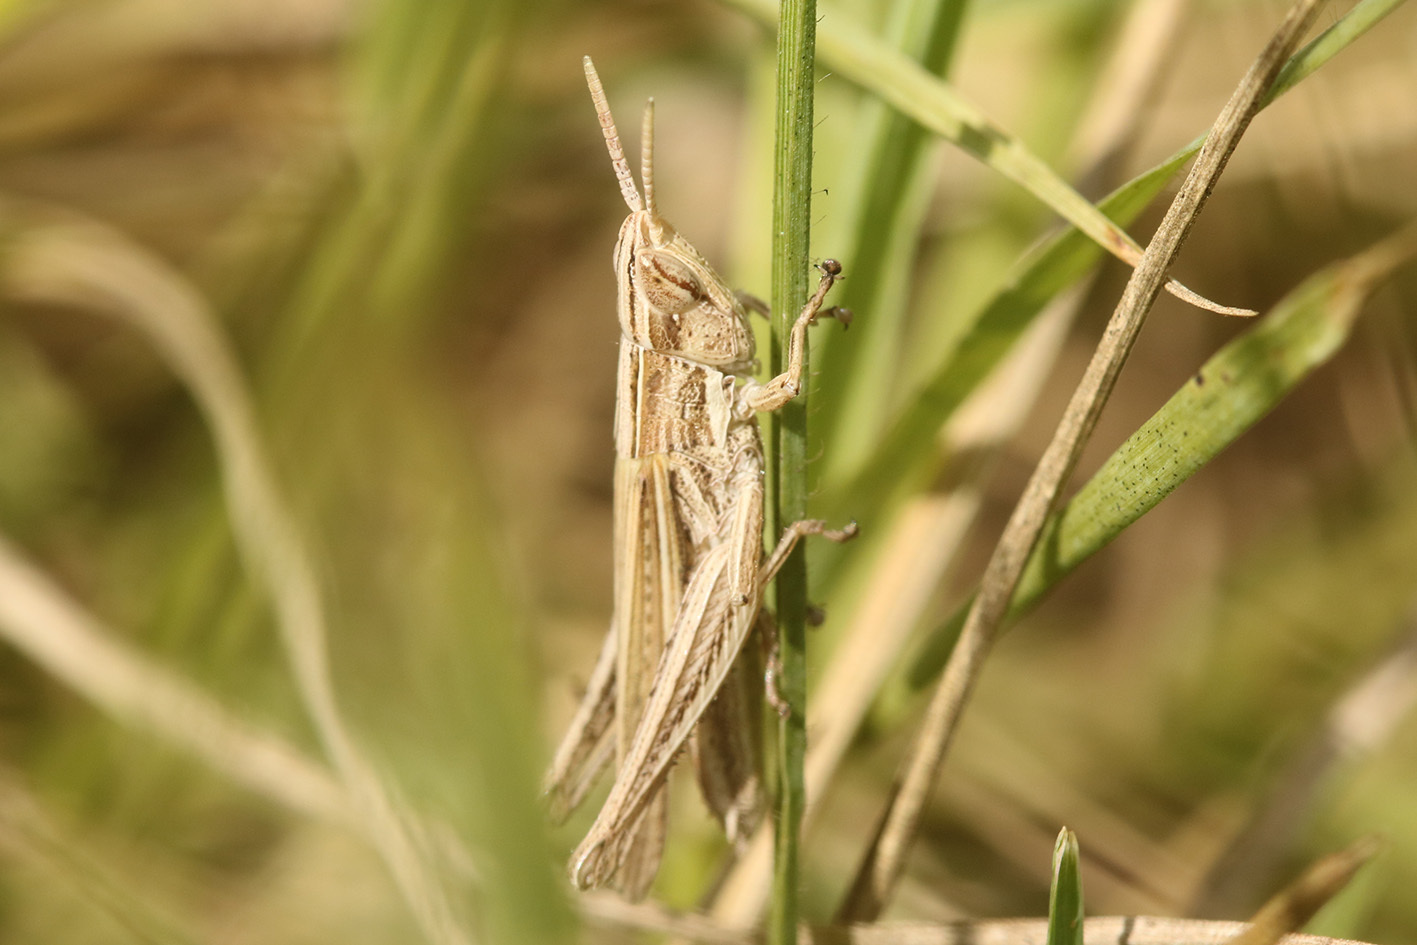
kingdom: Animalia
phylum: Arthropoda
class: Insecta
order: Orthoptera
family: Acrididae
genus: Laplatacris
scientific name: Laplatacris dispar
